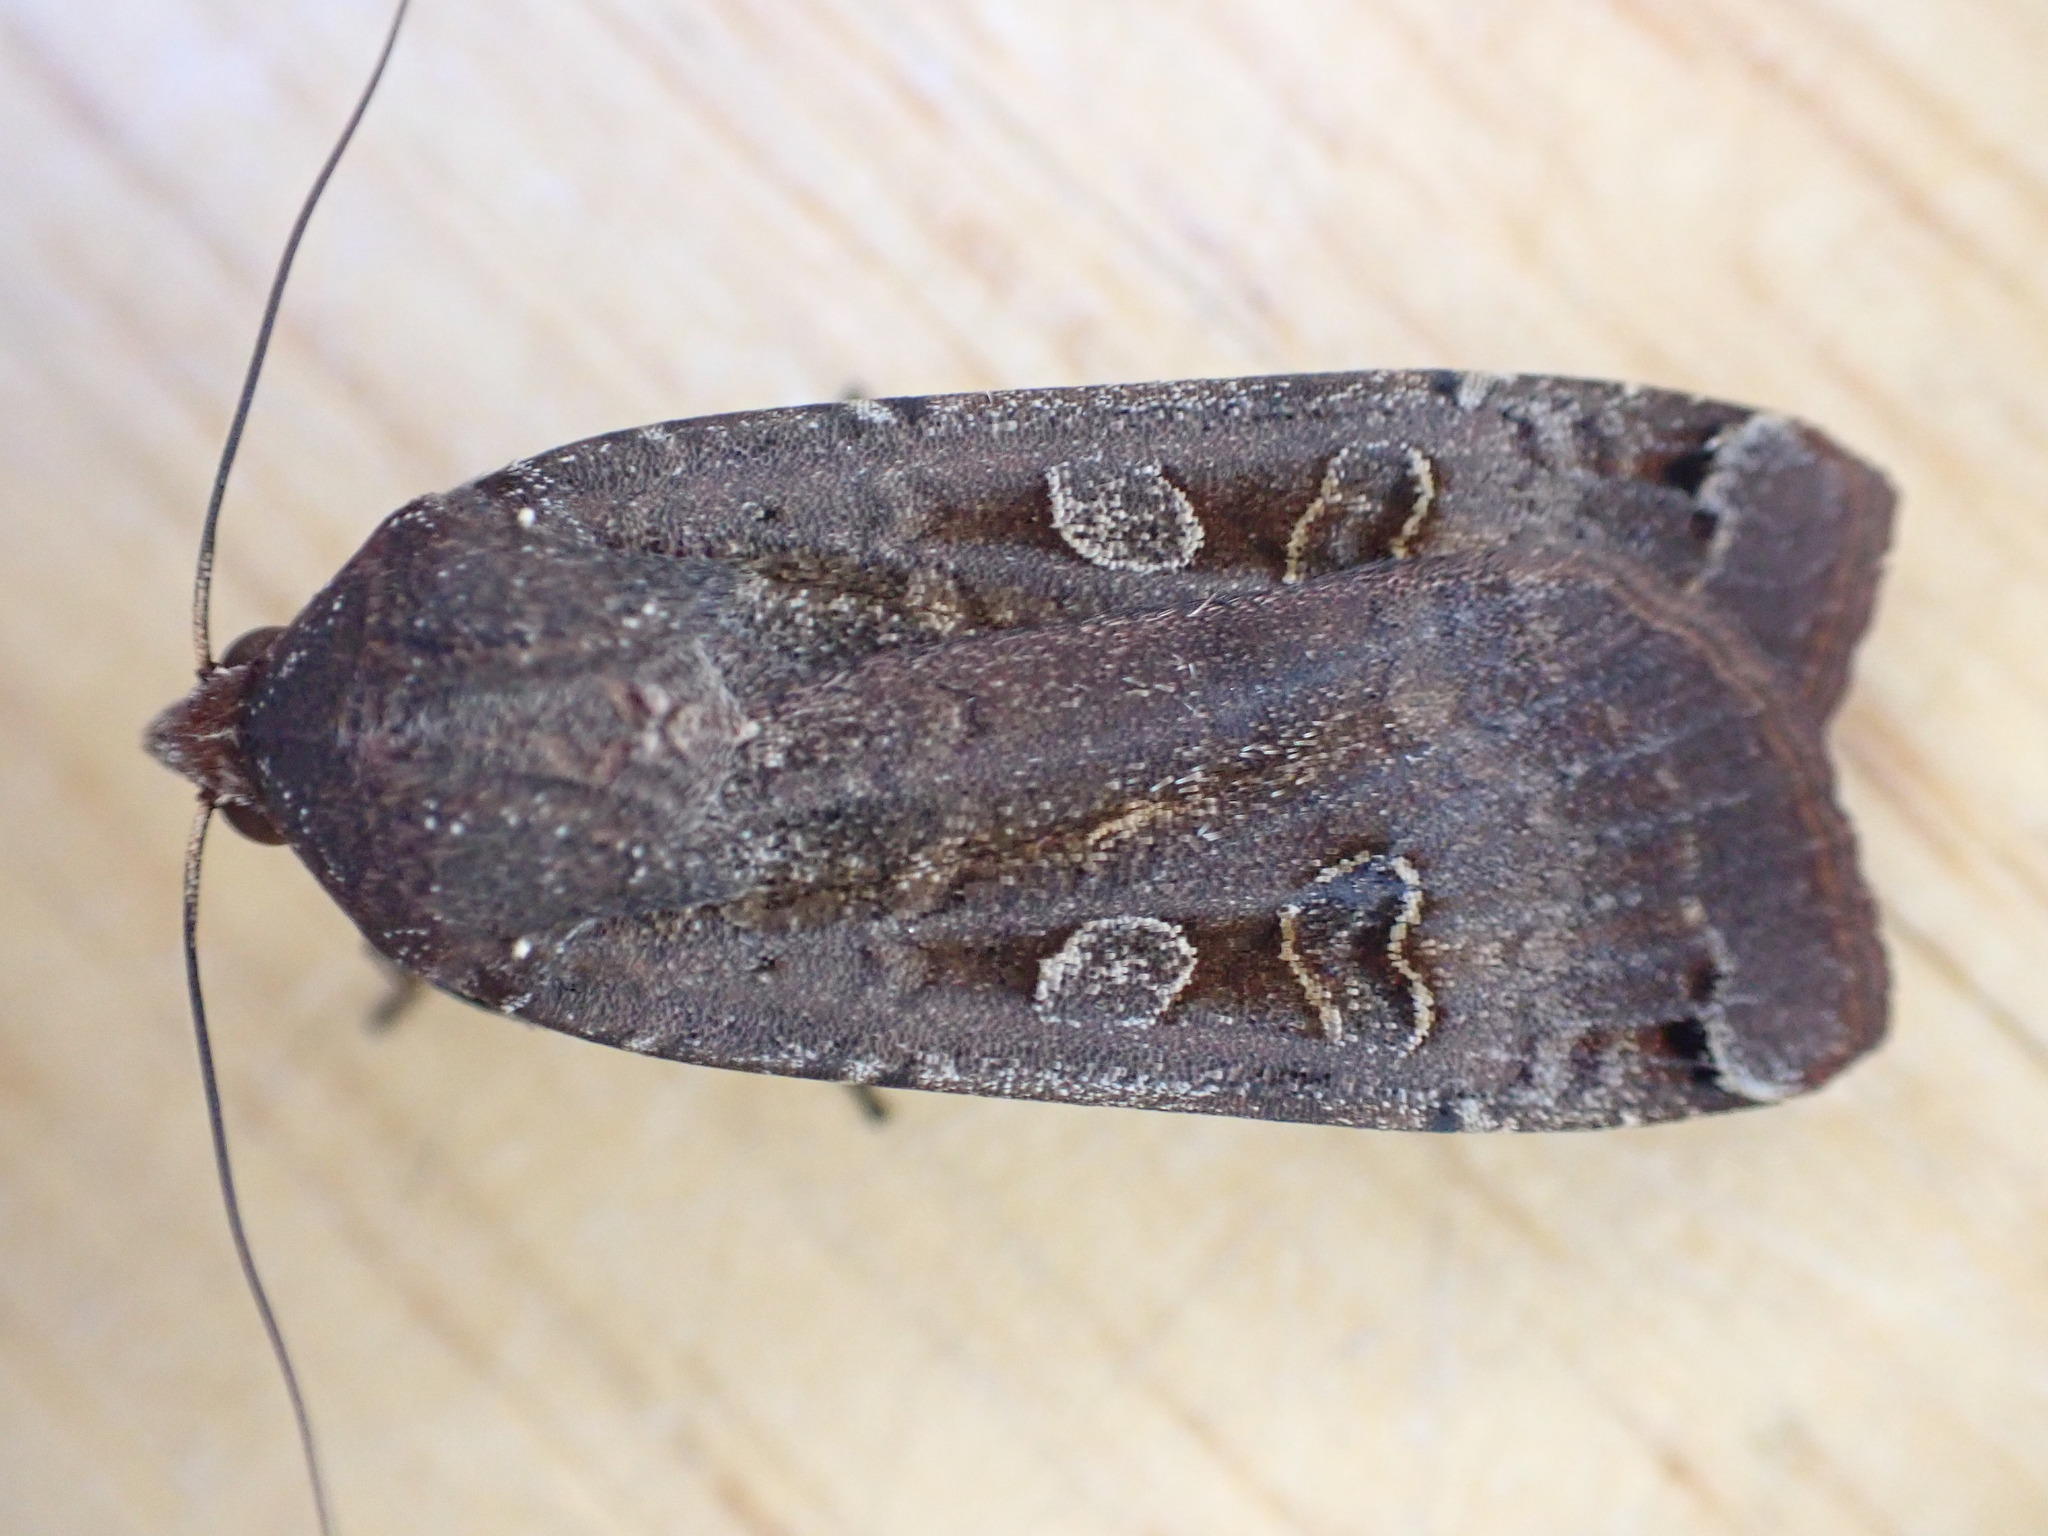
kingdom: Animalia
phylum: Arthropoda
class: Insecta
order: Lepidoptera
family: Noctuidae
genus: Noctua
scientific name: Noctua pronuba
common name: Large yellow underwing
